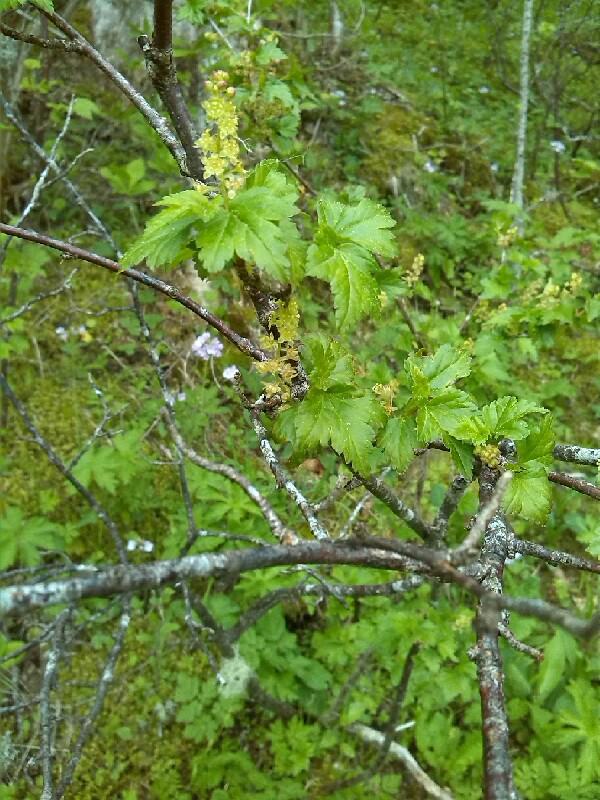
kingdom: Plantae
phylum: Tracheophyta
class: Magnoliopsida
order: Saxifragales
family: Grossulariaceae
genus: Ribes
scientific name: Ribes alpinum
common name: Alpine currant
